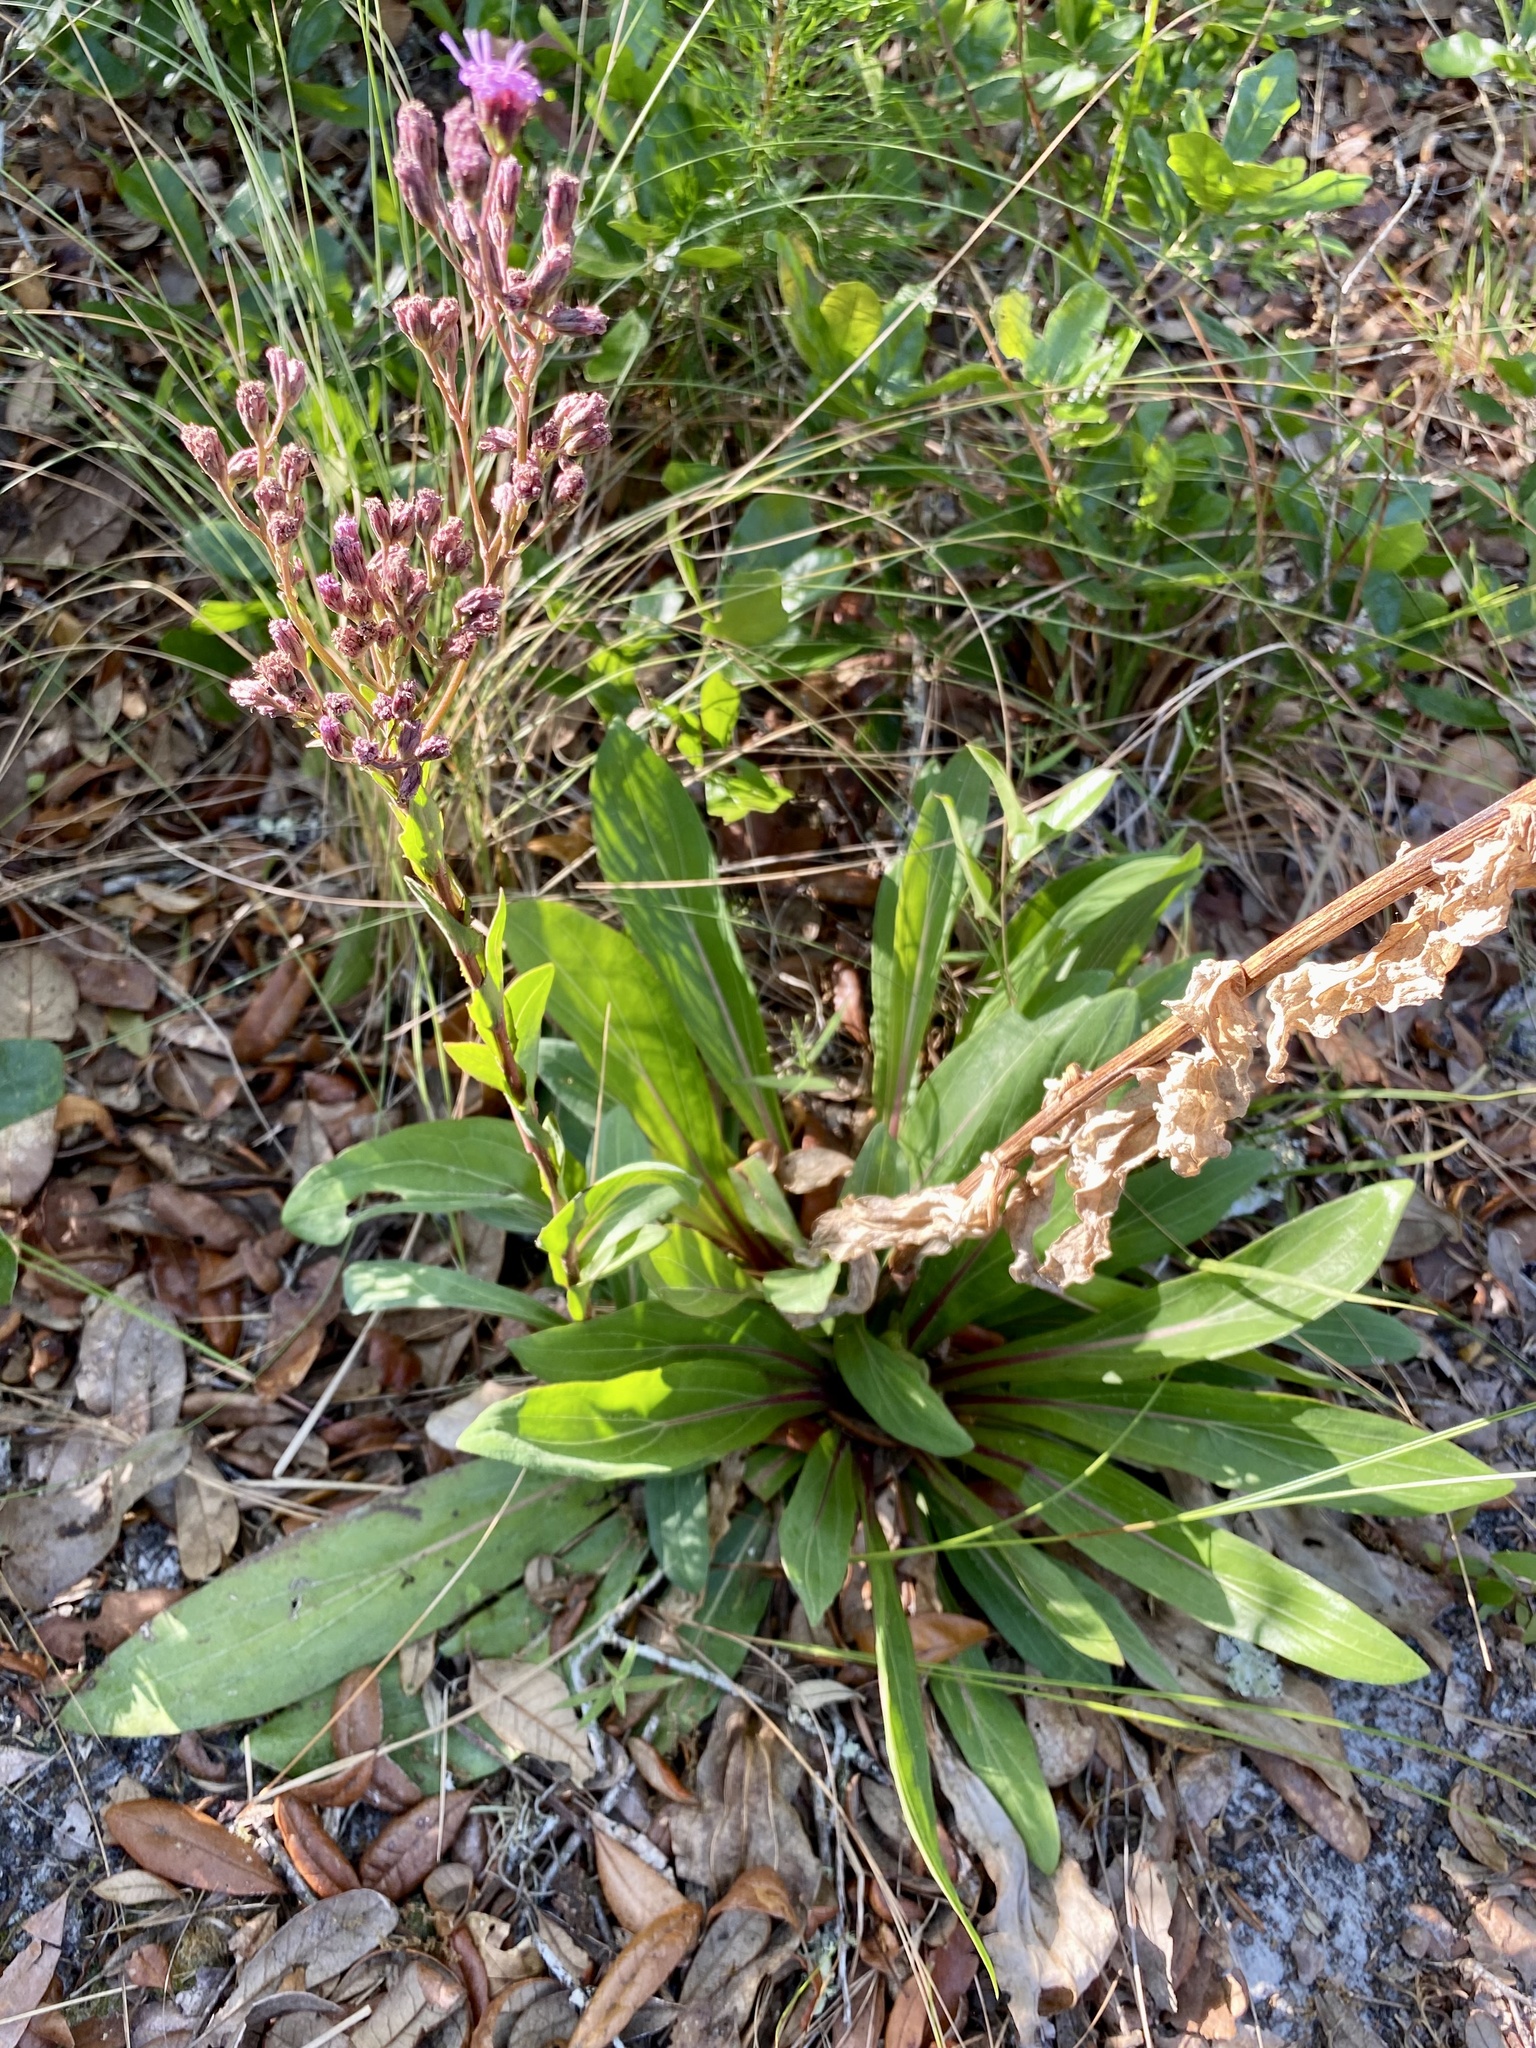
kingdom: Plantae
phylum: Tracheophyta
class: Magnoliopsida
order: Asterales
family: Asteraceae
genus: Carphephorus
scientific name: Carphephorus odoratissimus
